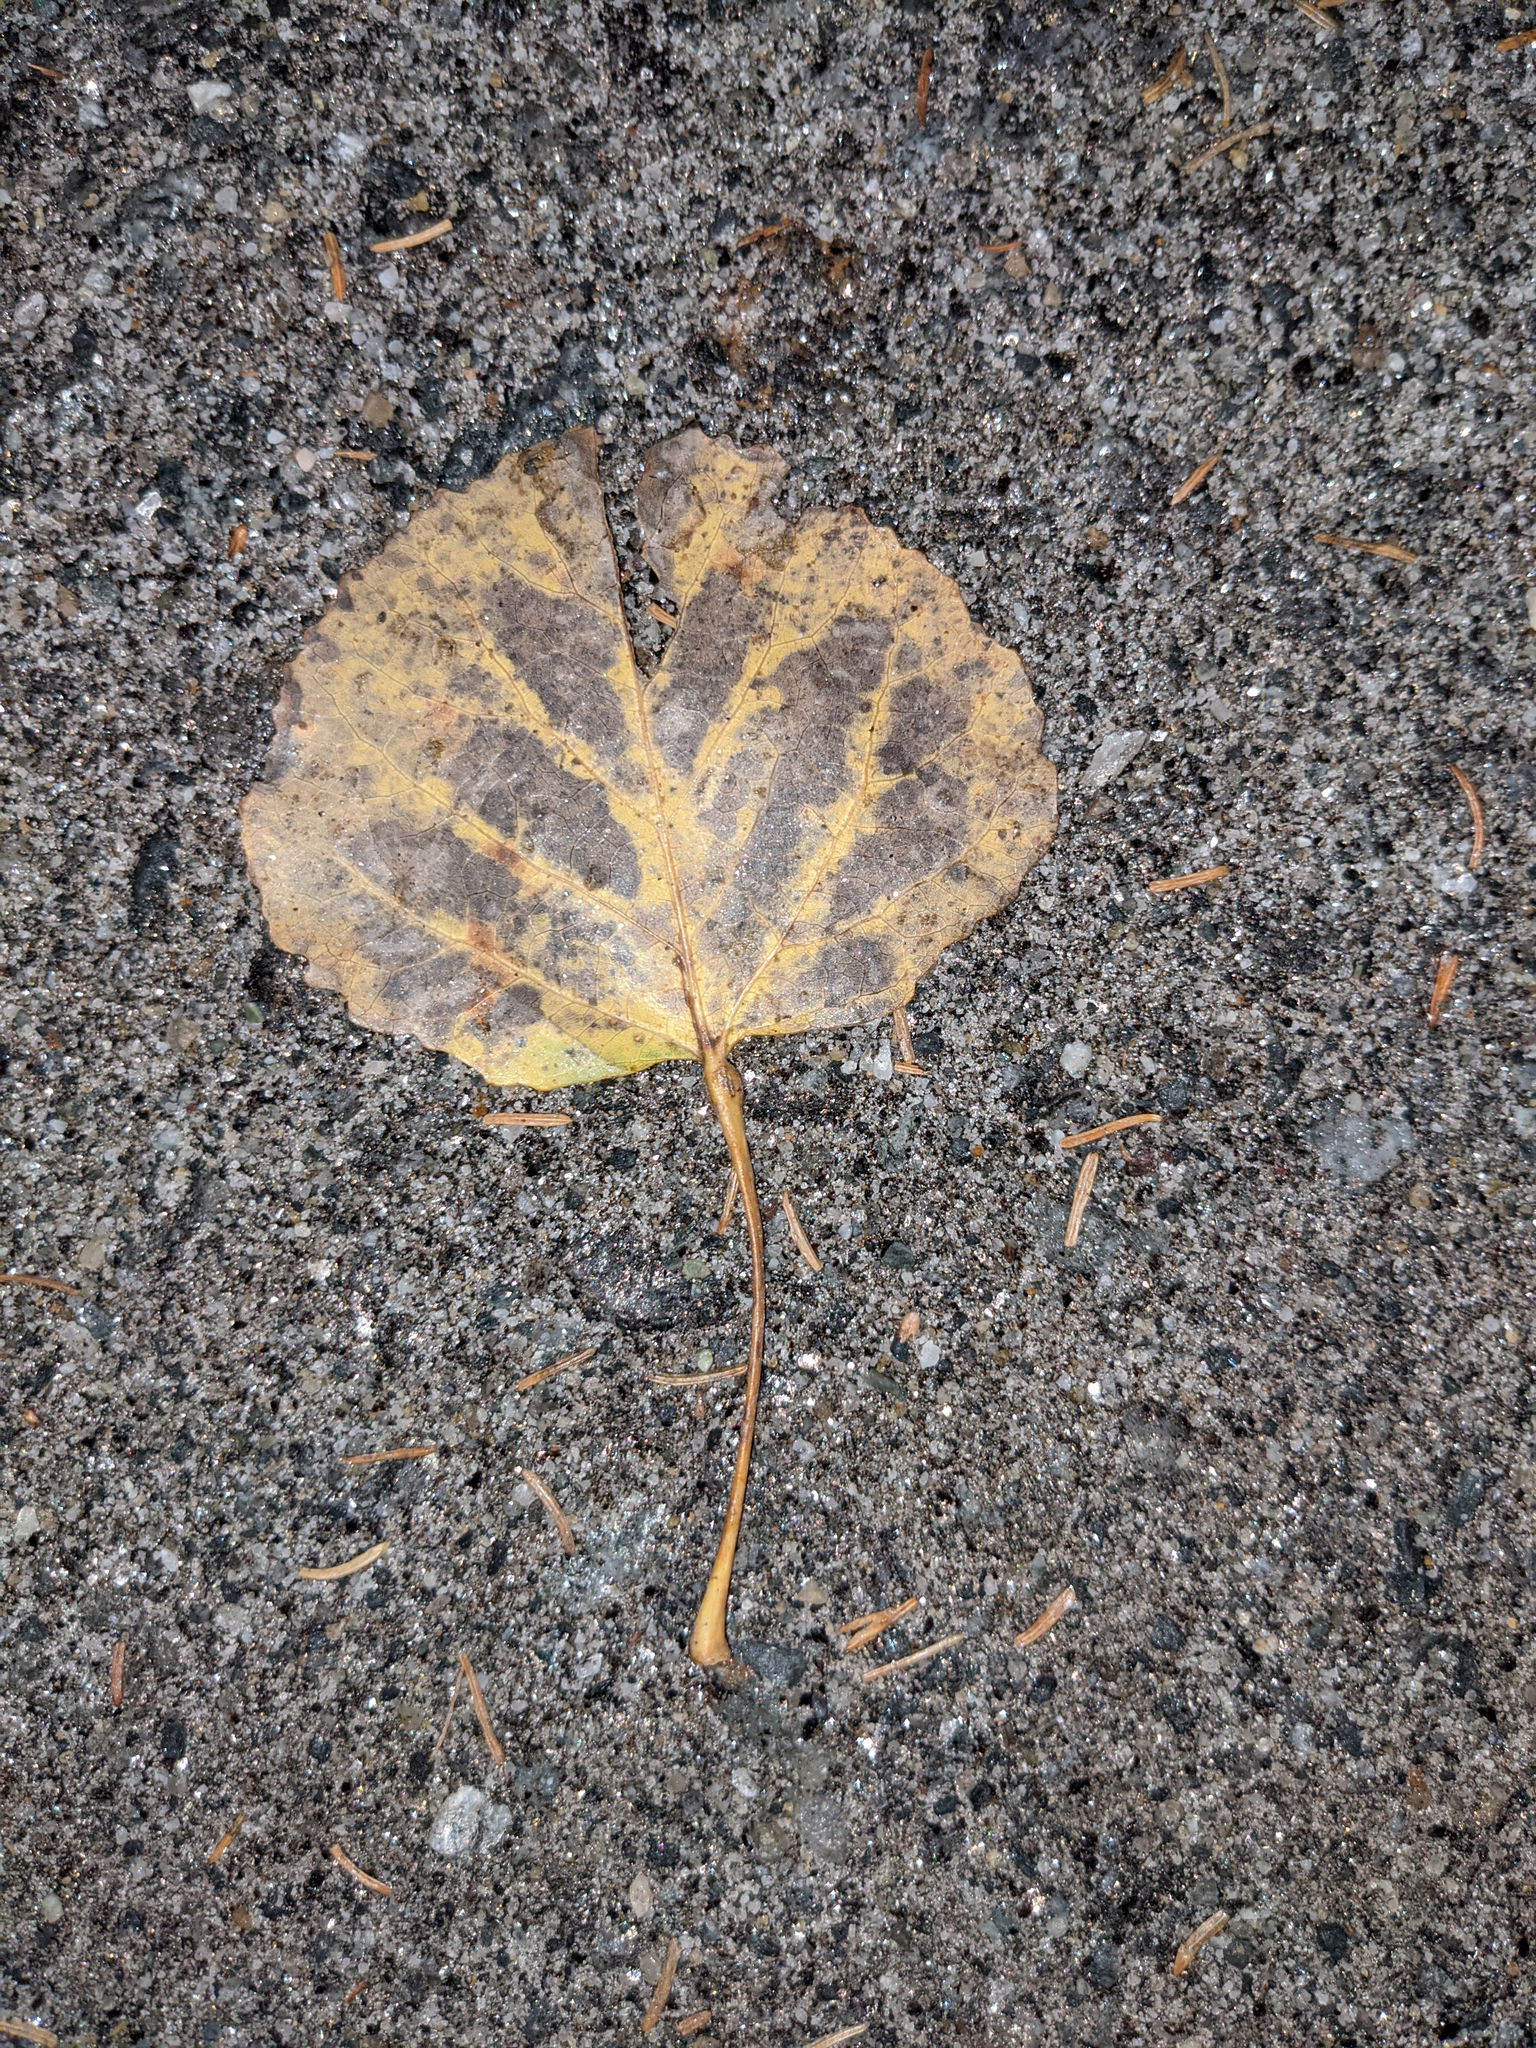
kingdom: Plantae
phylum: Tracheophyta
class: Magnoliopsida
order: Malpighiales
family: Salicaceae
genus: Populus
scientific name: Populus tremuloides
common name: Quaking aspen
